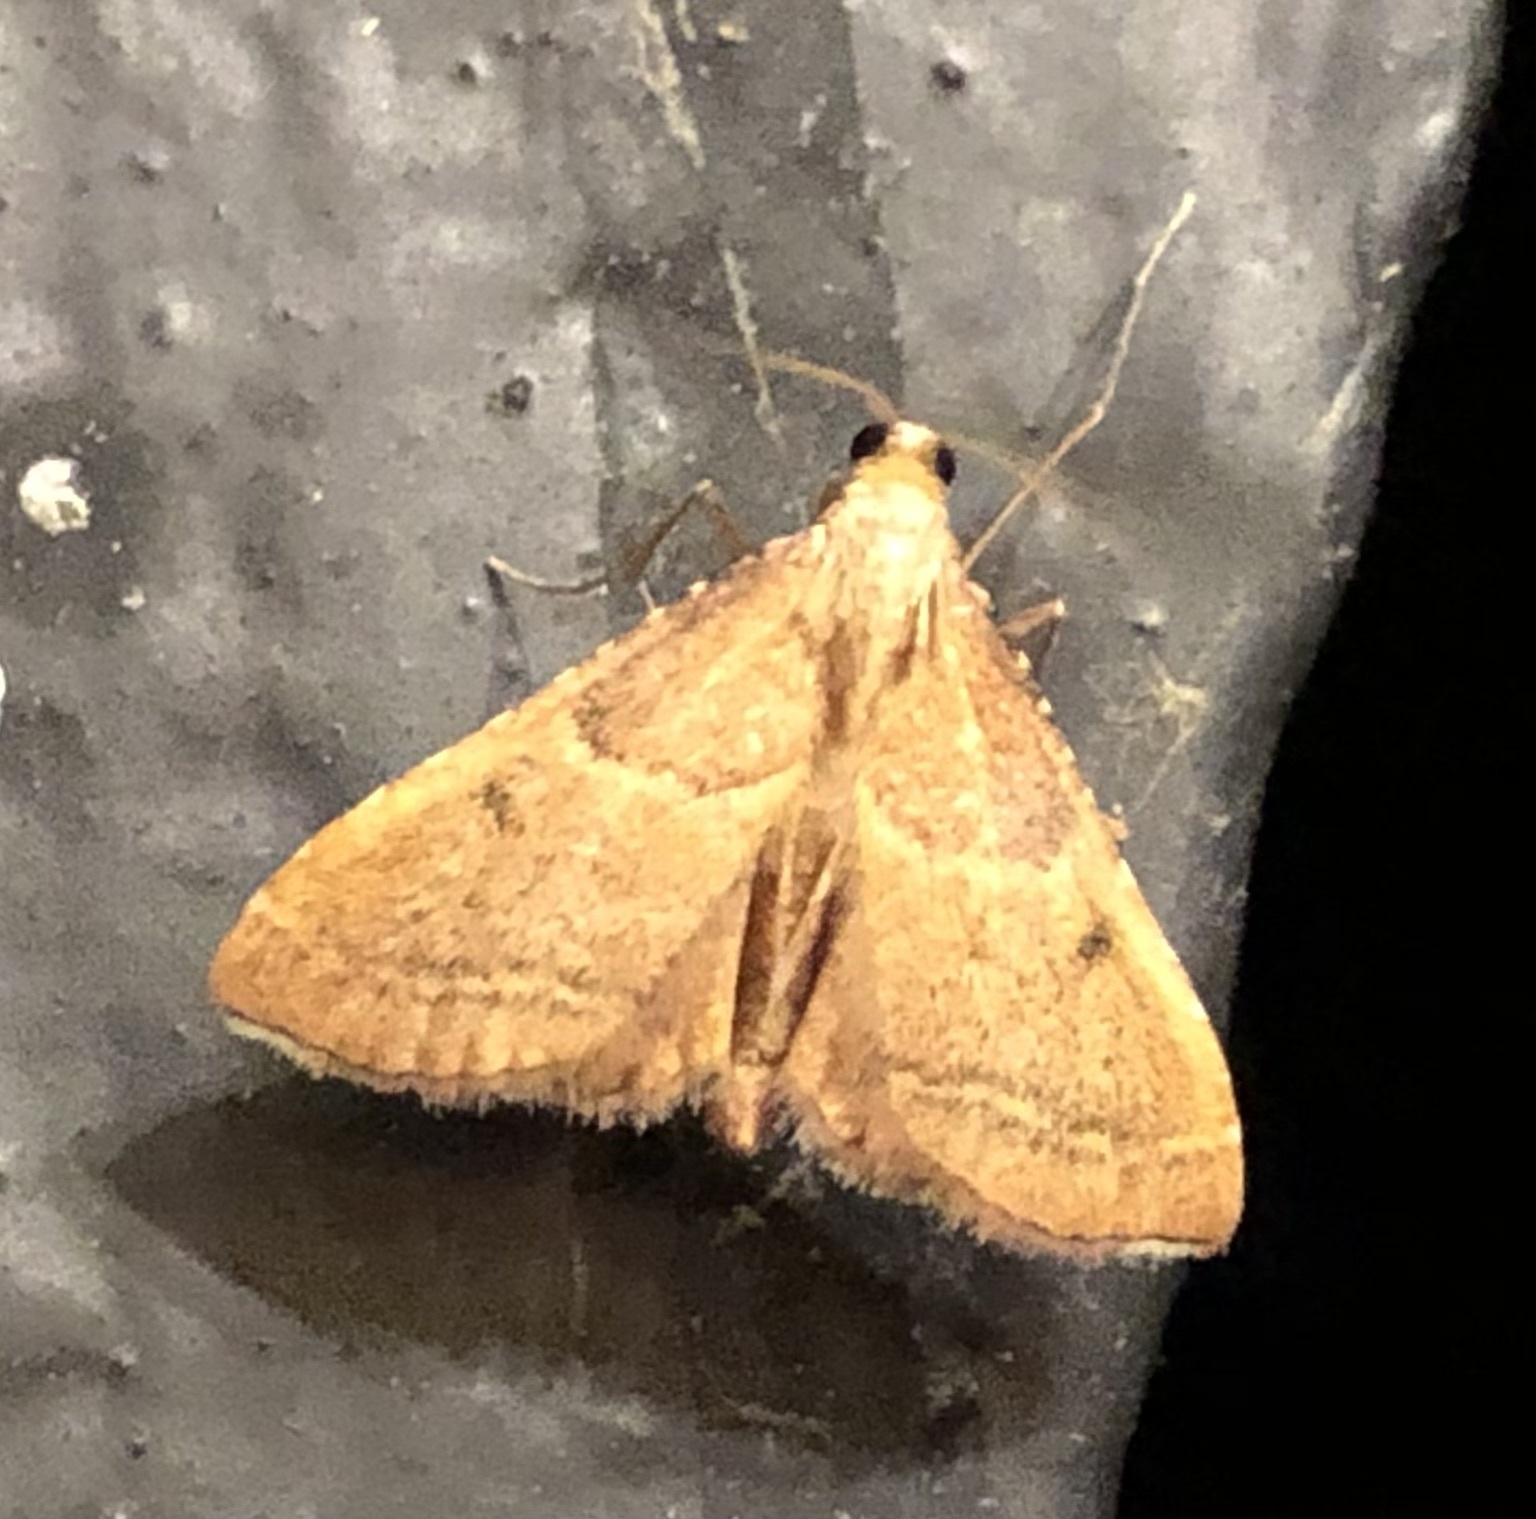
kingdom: Animalia
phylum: Arthropoda
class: Insecta
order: Lepidoptera
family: Pyralidae
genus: Endotricha
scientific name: Endotricha flammealis
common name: Rosy tabby
